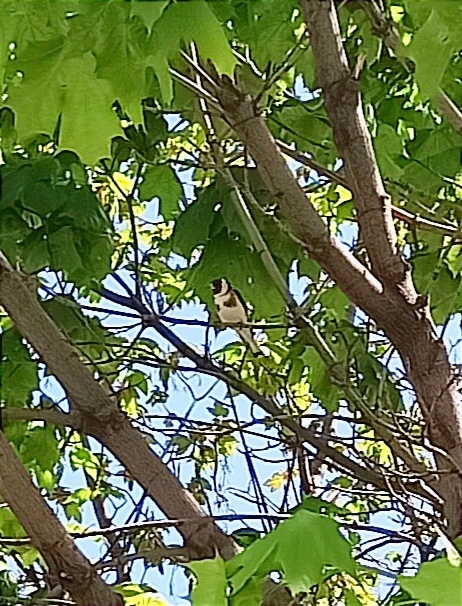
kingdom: Animalia
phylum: Chordata
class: Aves
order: Passeriformes
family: Fringillidae
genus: Carduelis
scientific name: Carduelis carduelis
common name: European goldfinch
